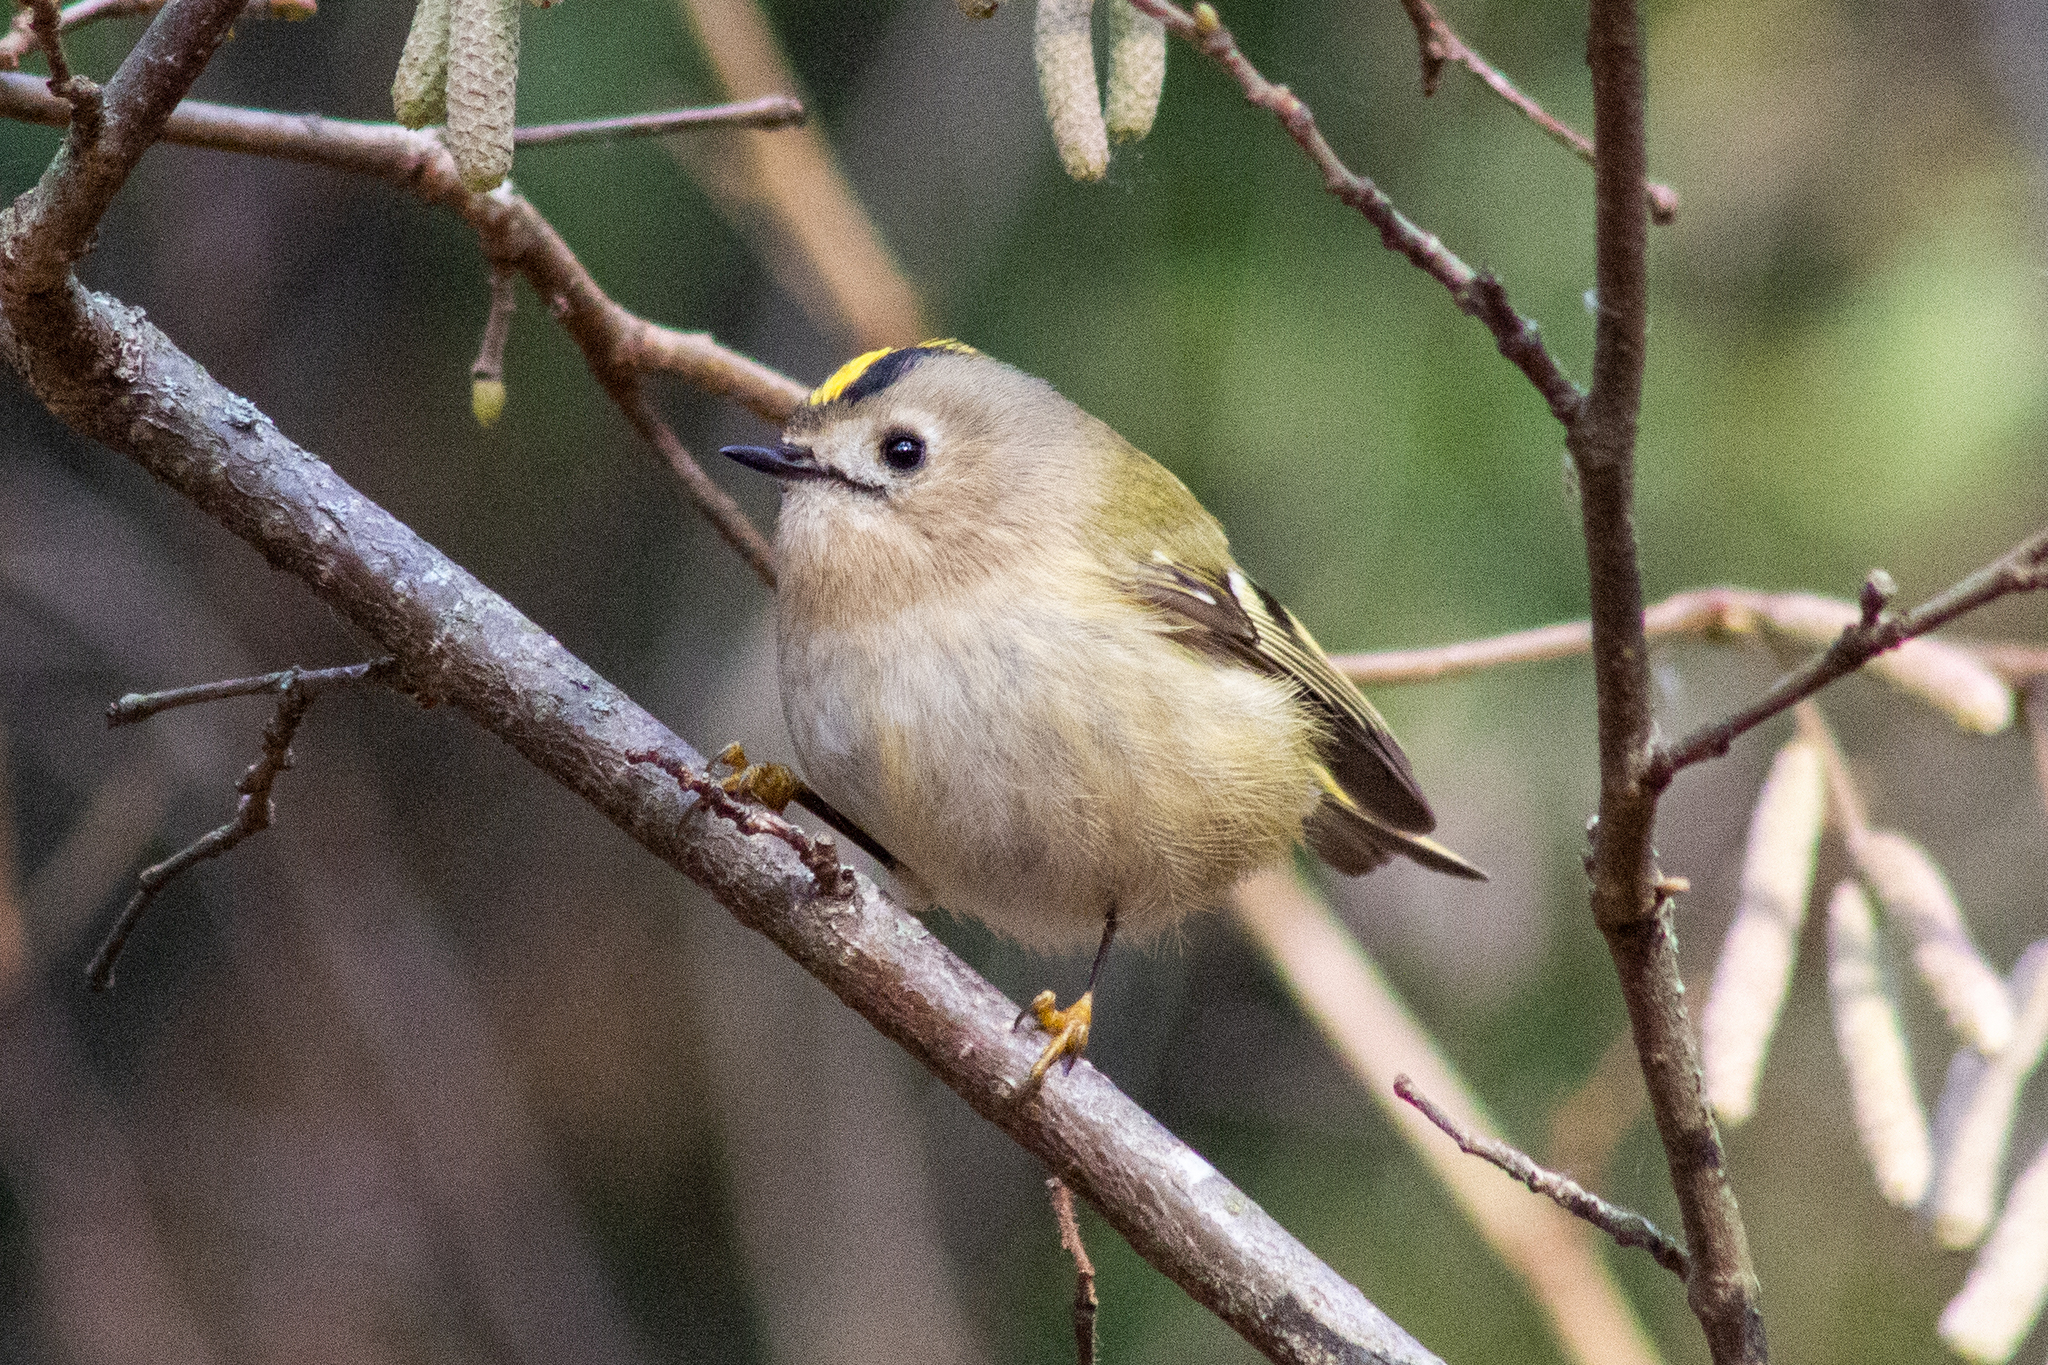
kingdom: Animalia
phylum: Chordata
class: Aves
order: Passeriformes
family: Regulidae
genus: Regulus
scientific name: Regulus regulus
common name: Goldcrest
